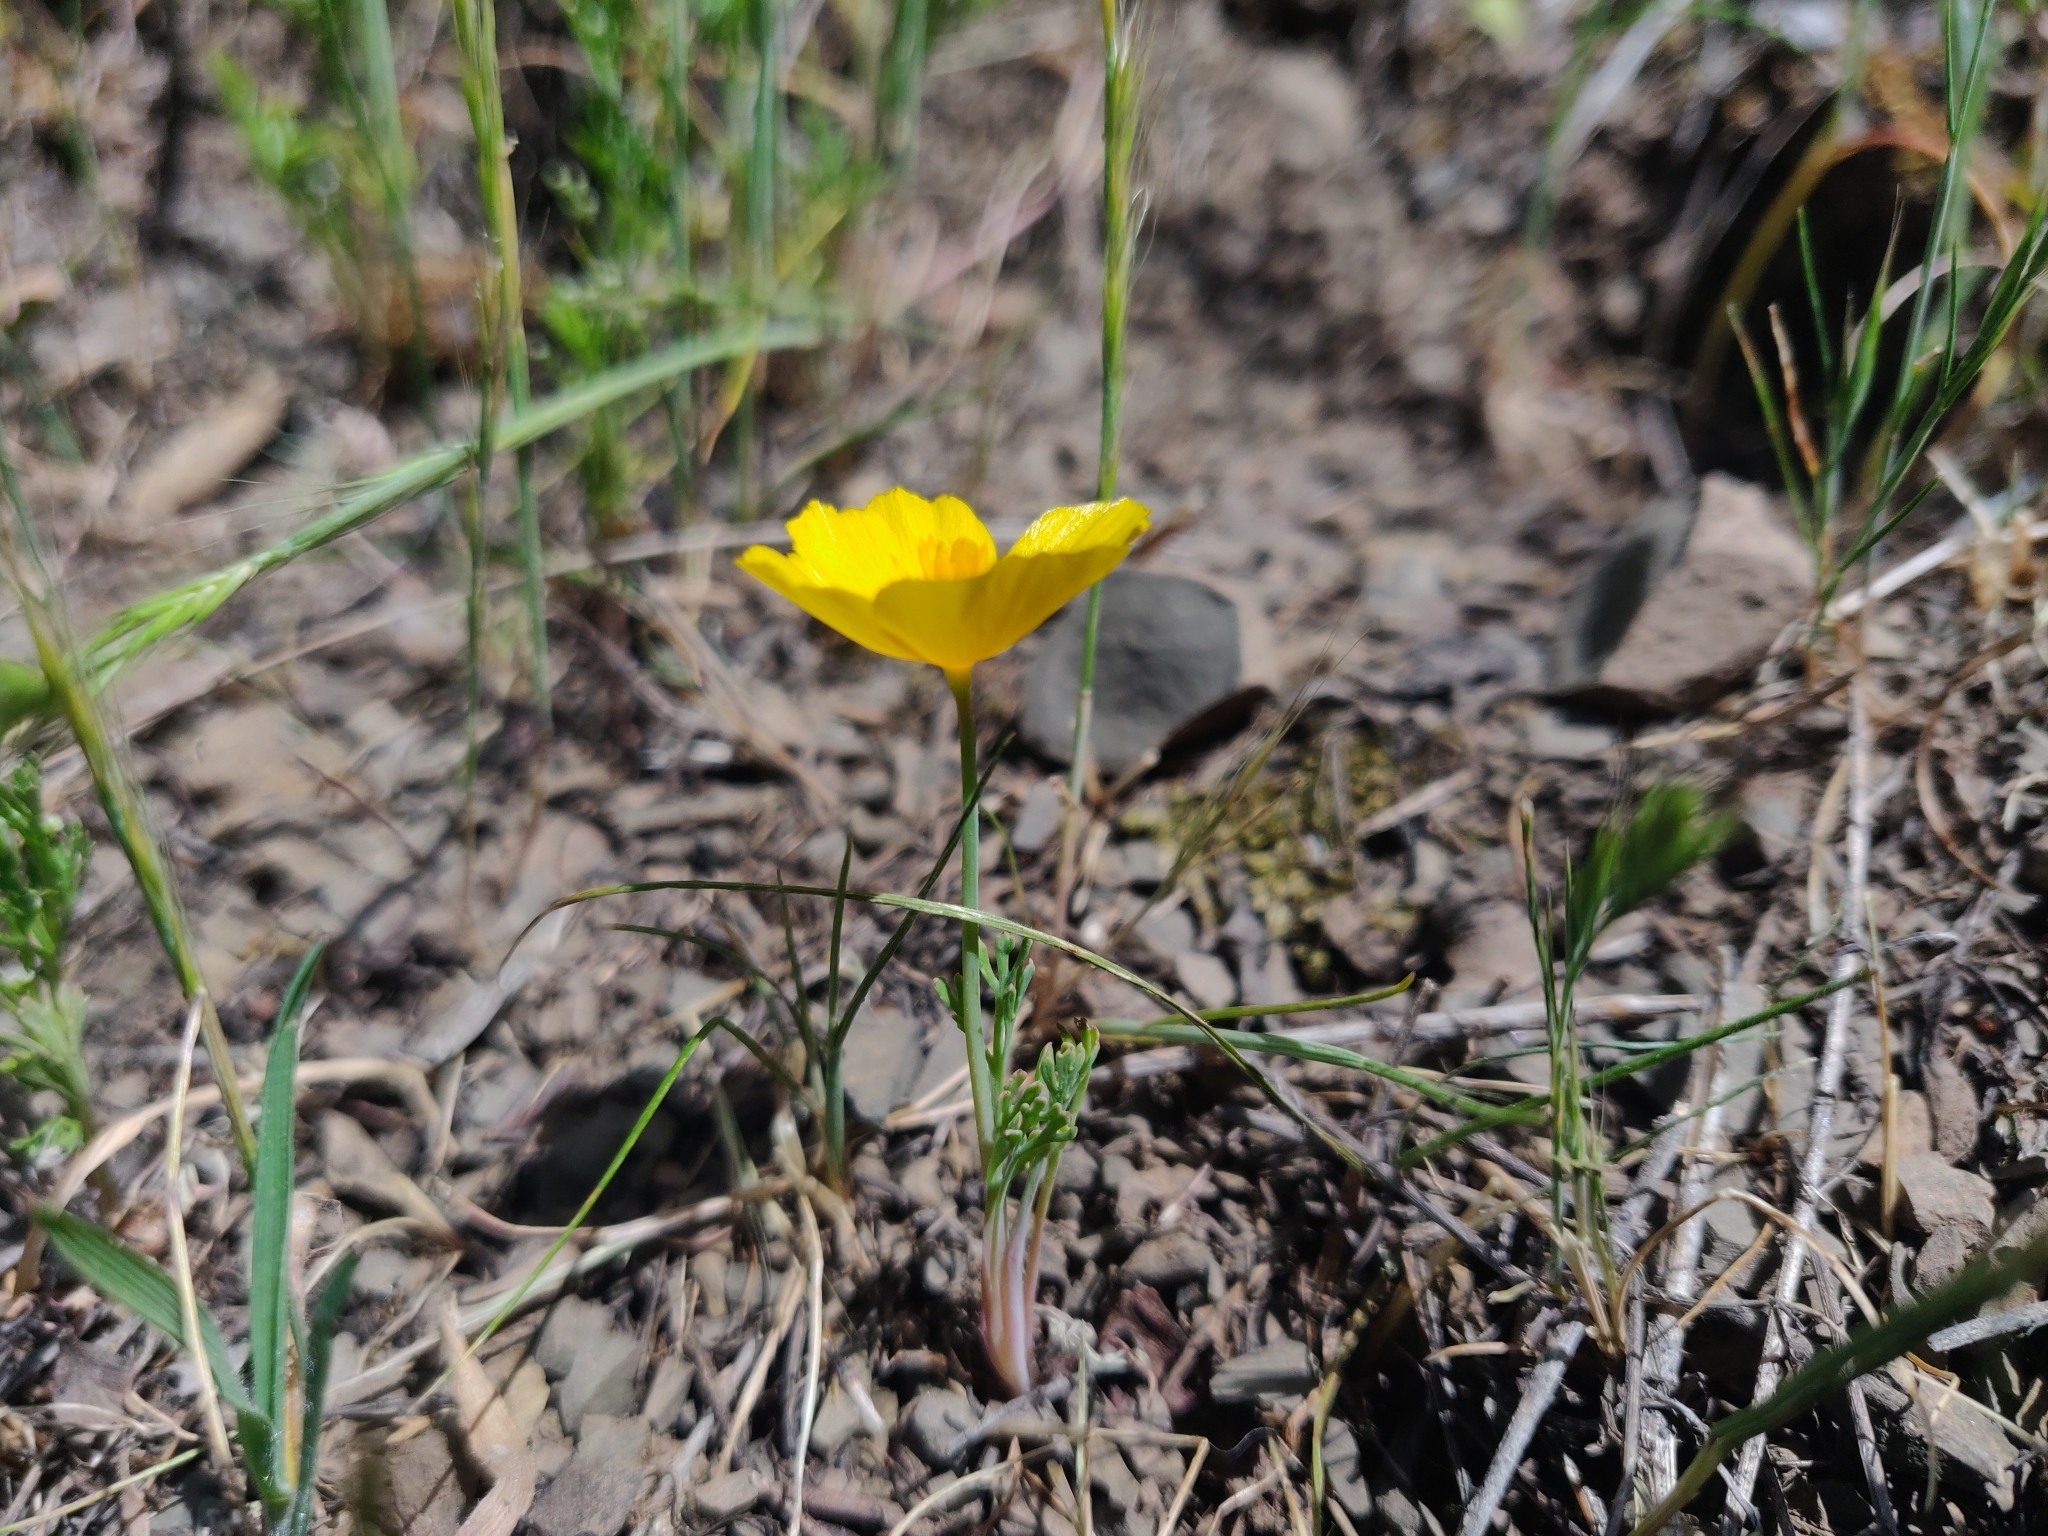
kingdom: Plantae
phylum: Tracheophyta
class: Magnoliopsida
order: Ranunculales
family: Papaveraceae
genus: Eschscholzia
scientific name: Eschscholzia caespitosa
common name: Tufted california-poppy
